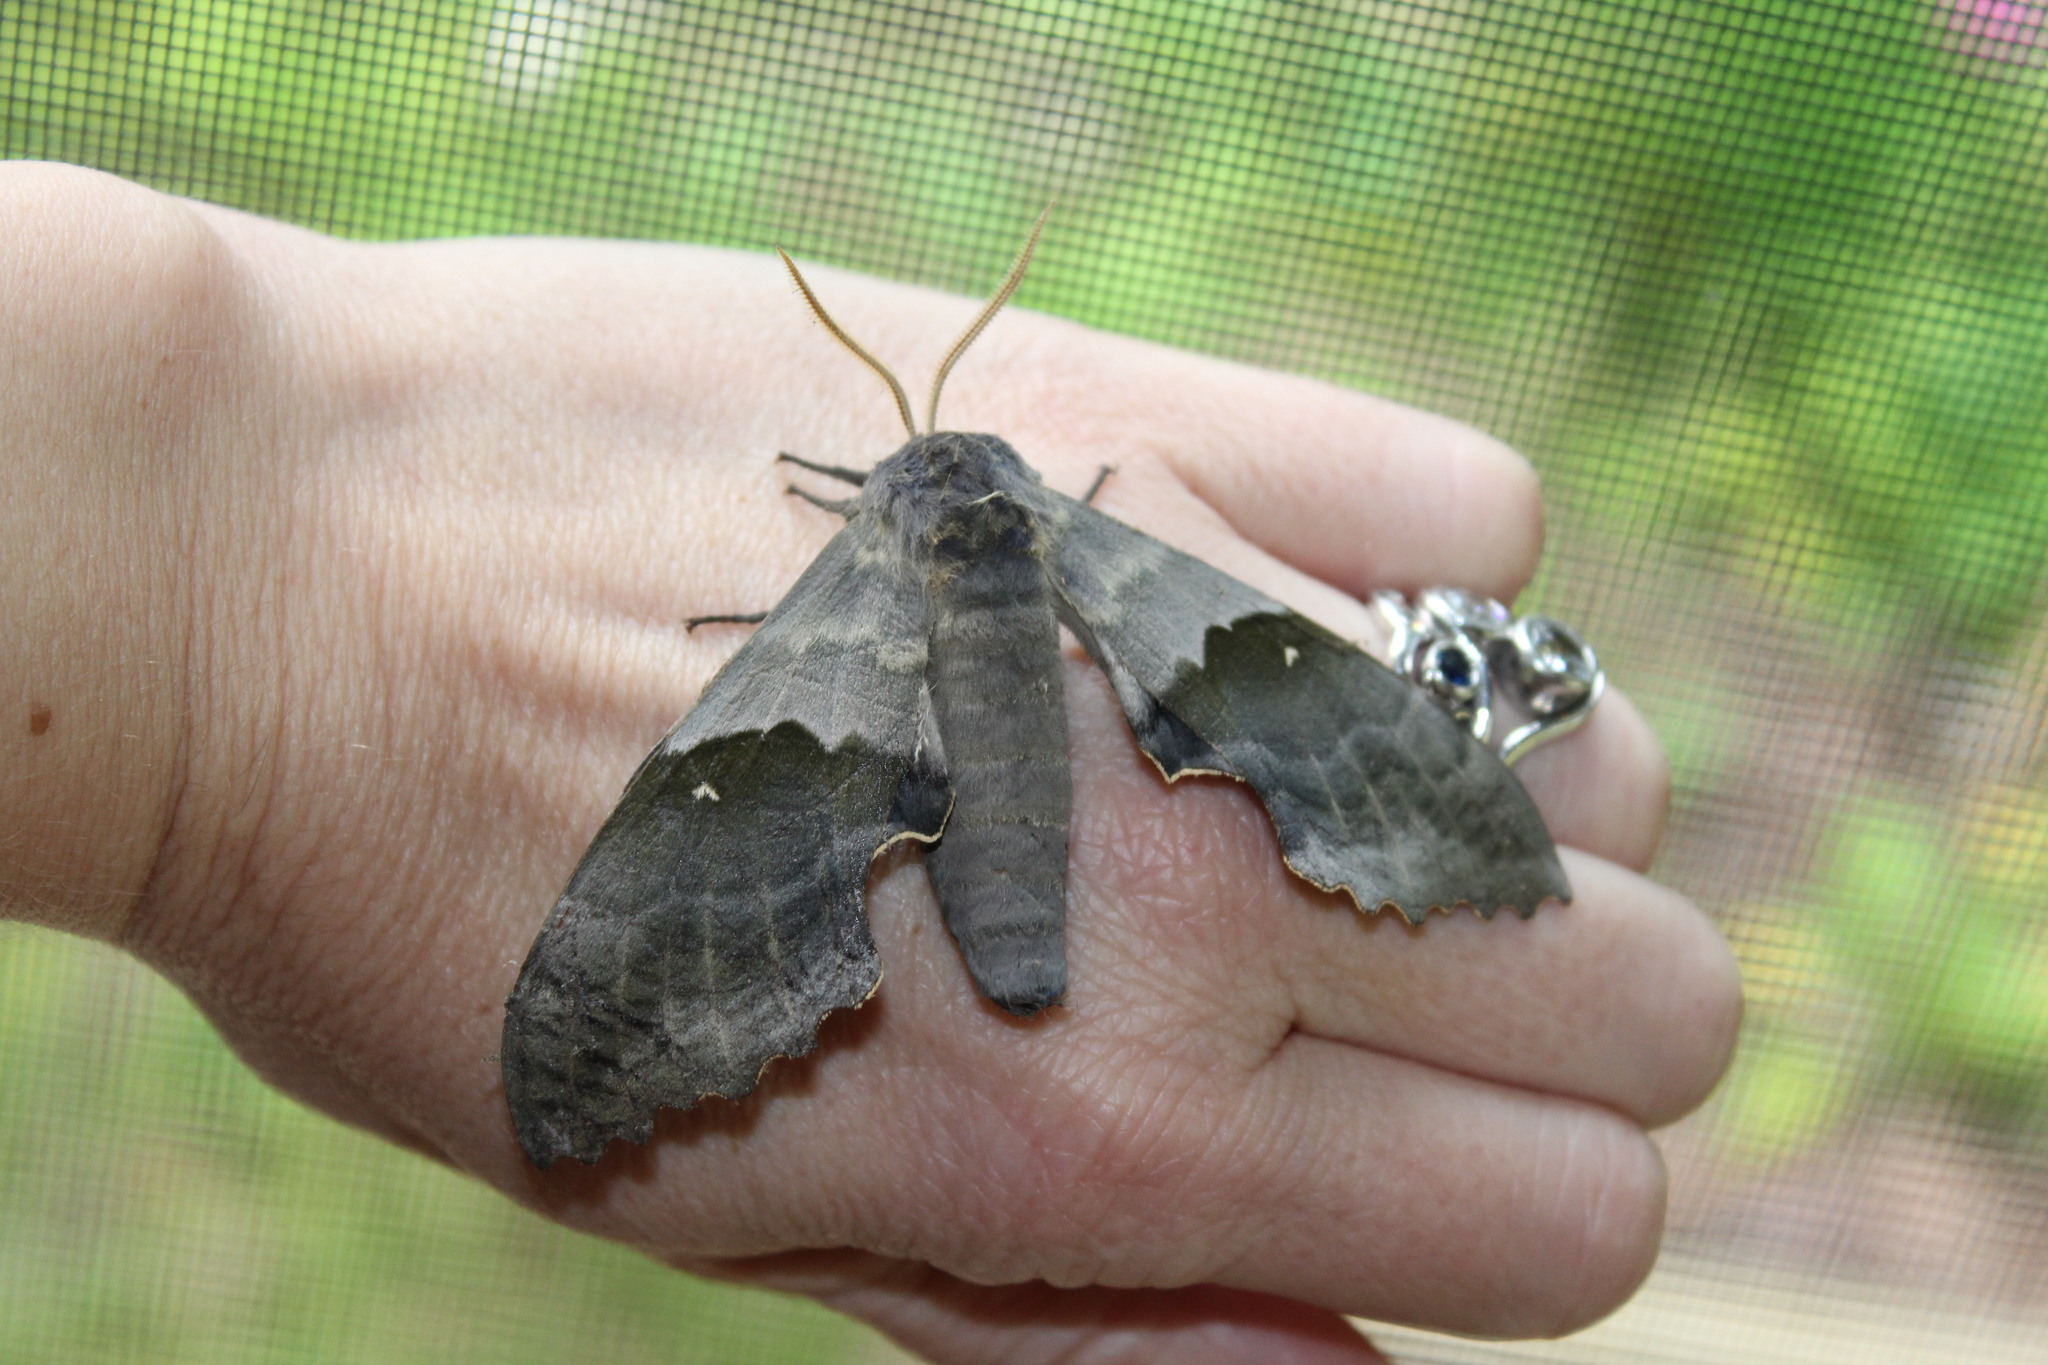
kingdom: Animalia
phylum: Arthropoda
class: Insecta
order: Lepidoptera
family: Sphingidae
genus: Pachysphinx
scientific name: Pachysphinx modesta
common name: Big poplar sphinx
